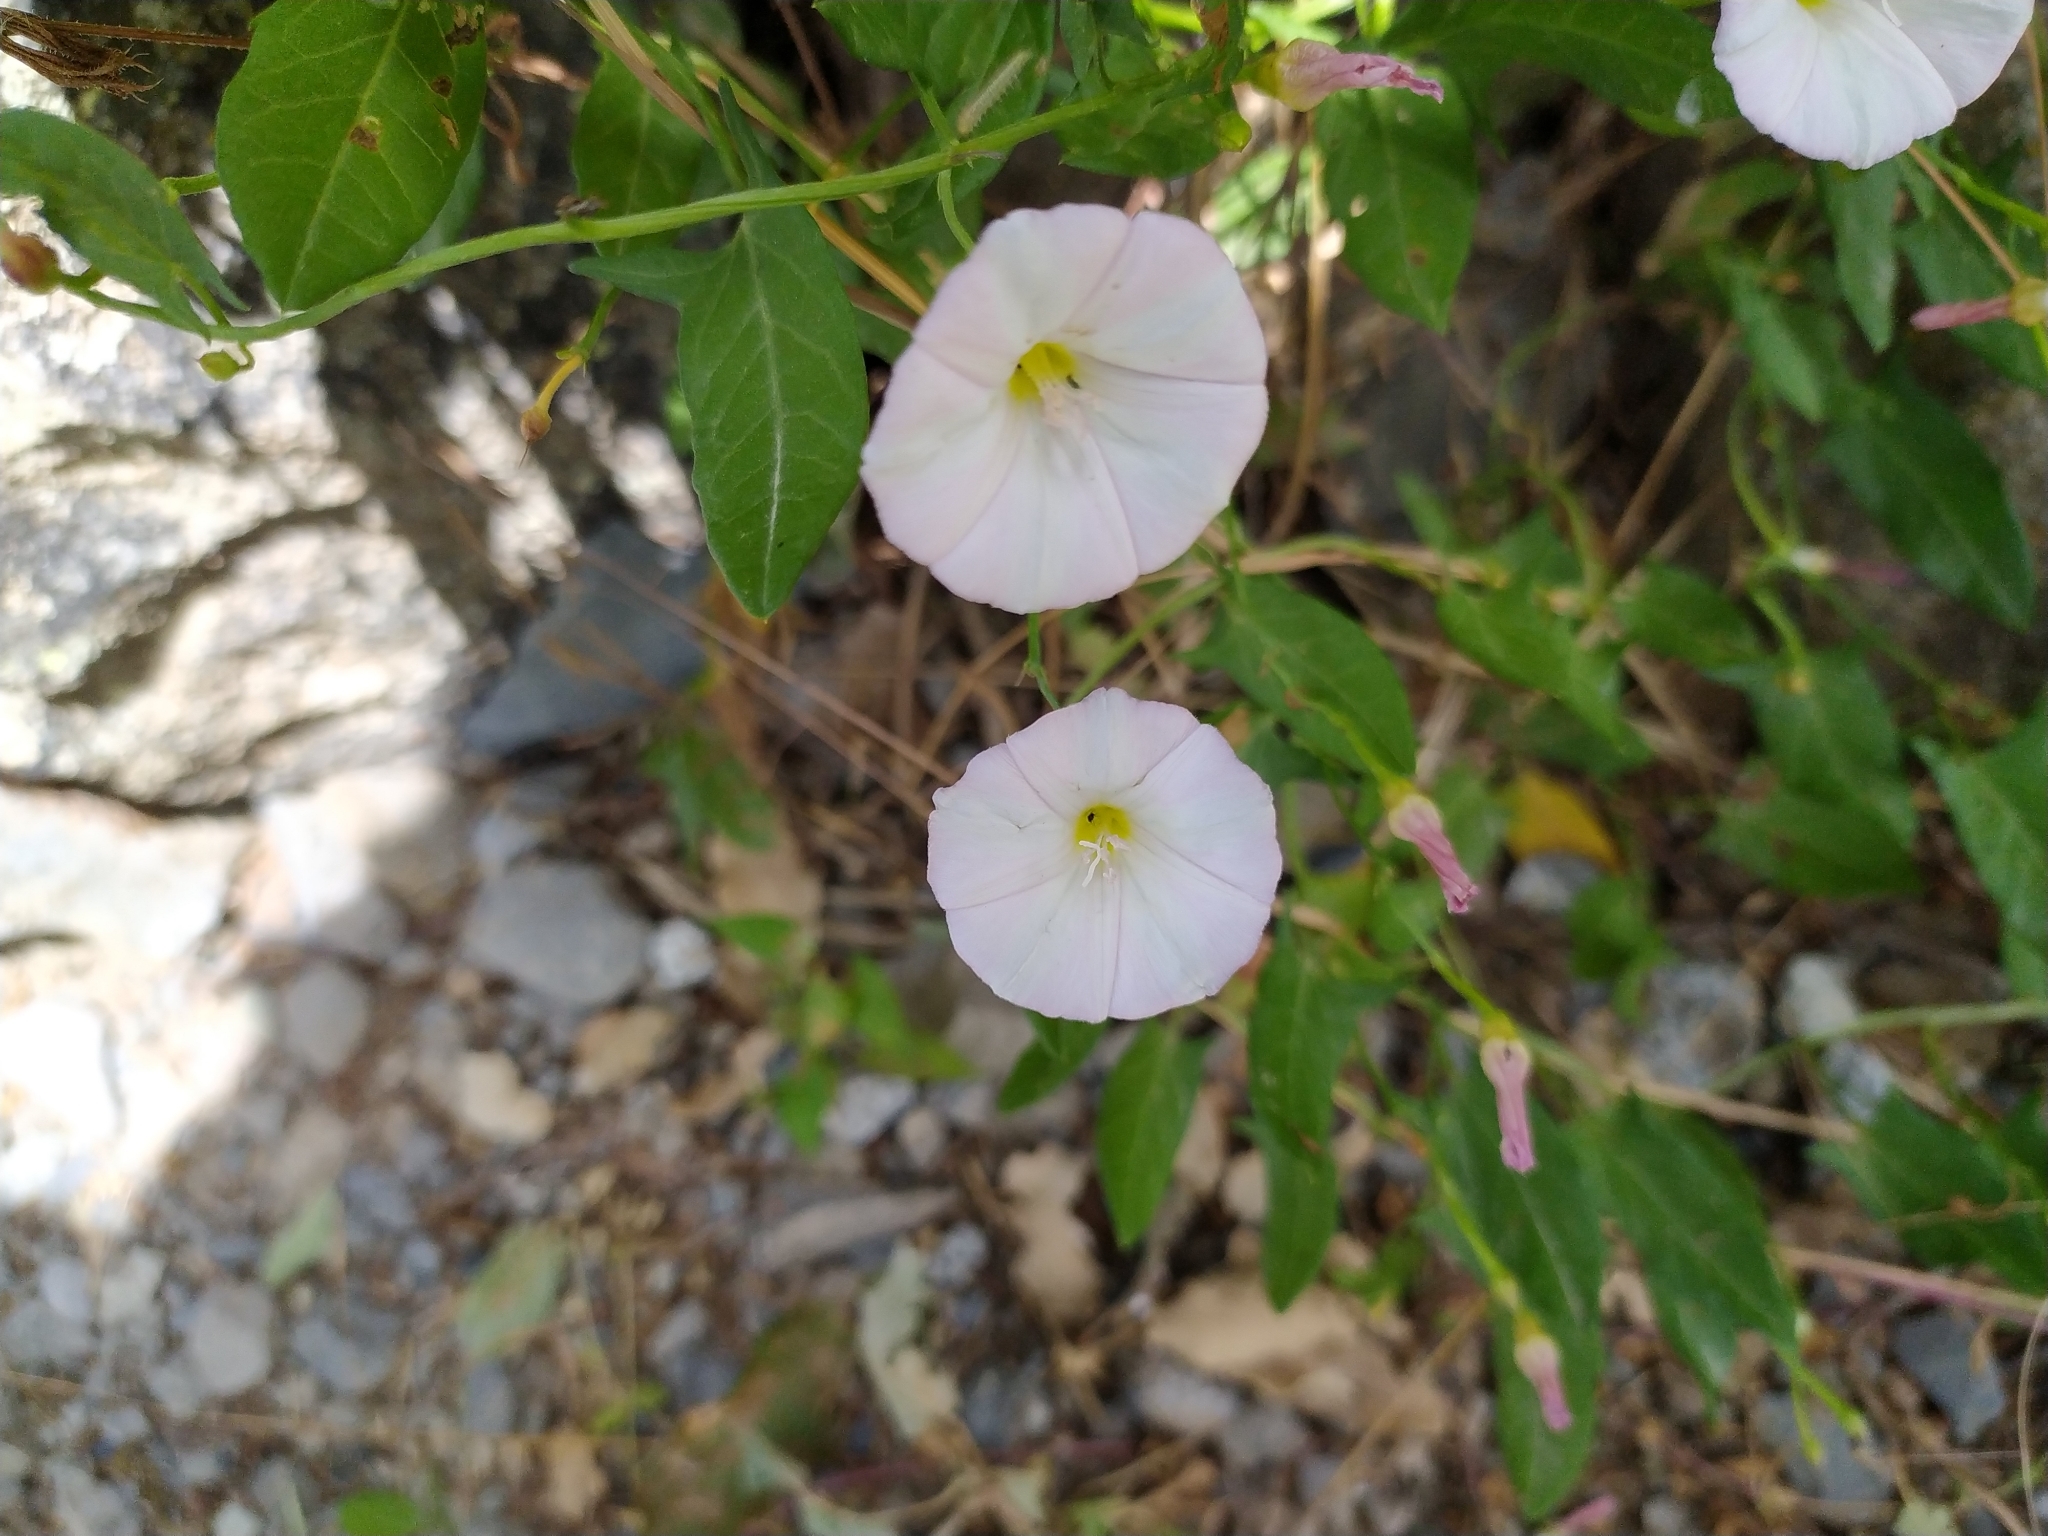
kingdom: Plantae
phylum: Tracheophyta
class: Magnoliopsida
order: Solanales
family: Convolvulaceae
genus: Convolvulus
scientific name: Convolvulus arvensis
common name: Field bindweed
